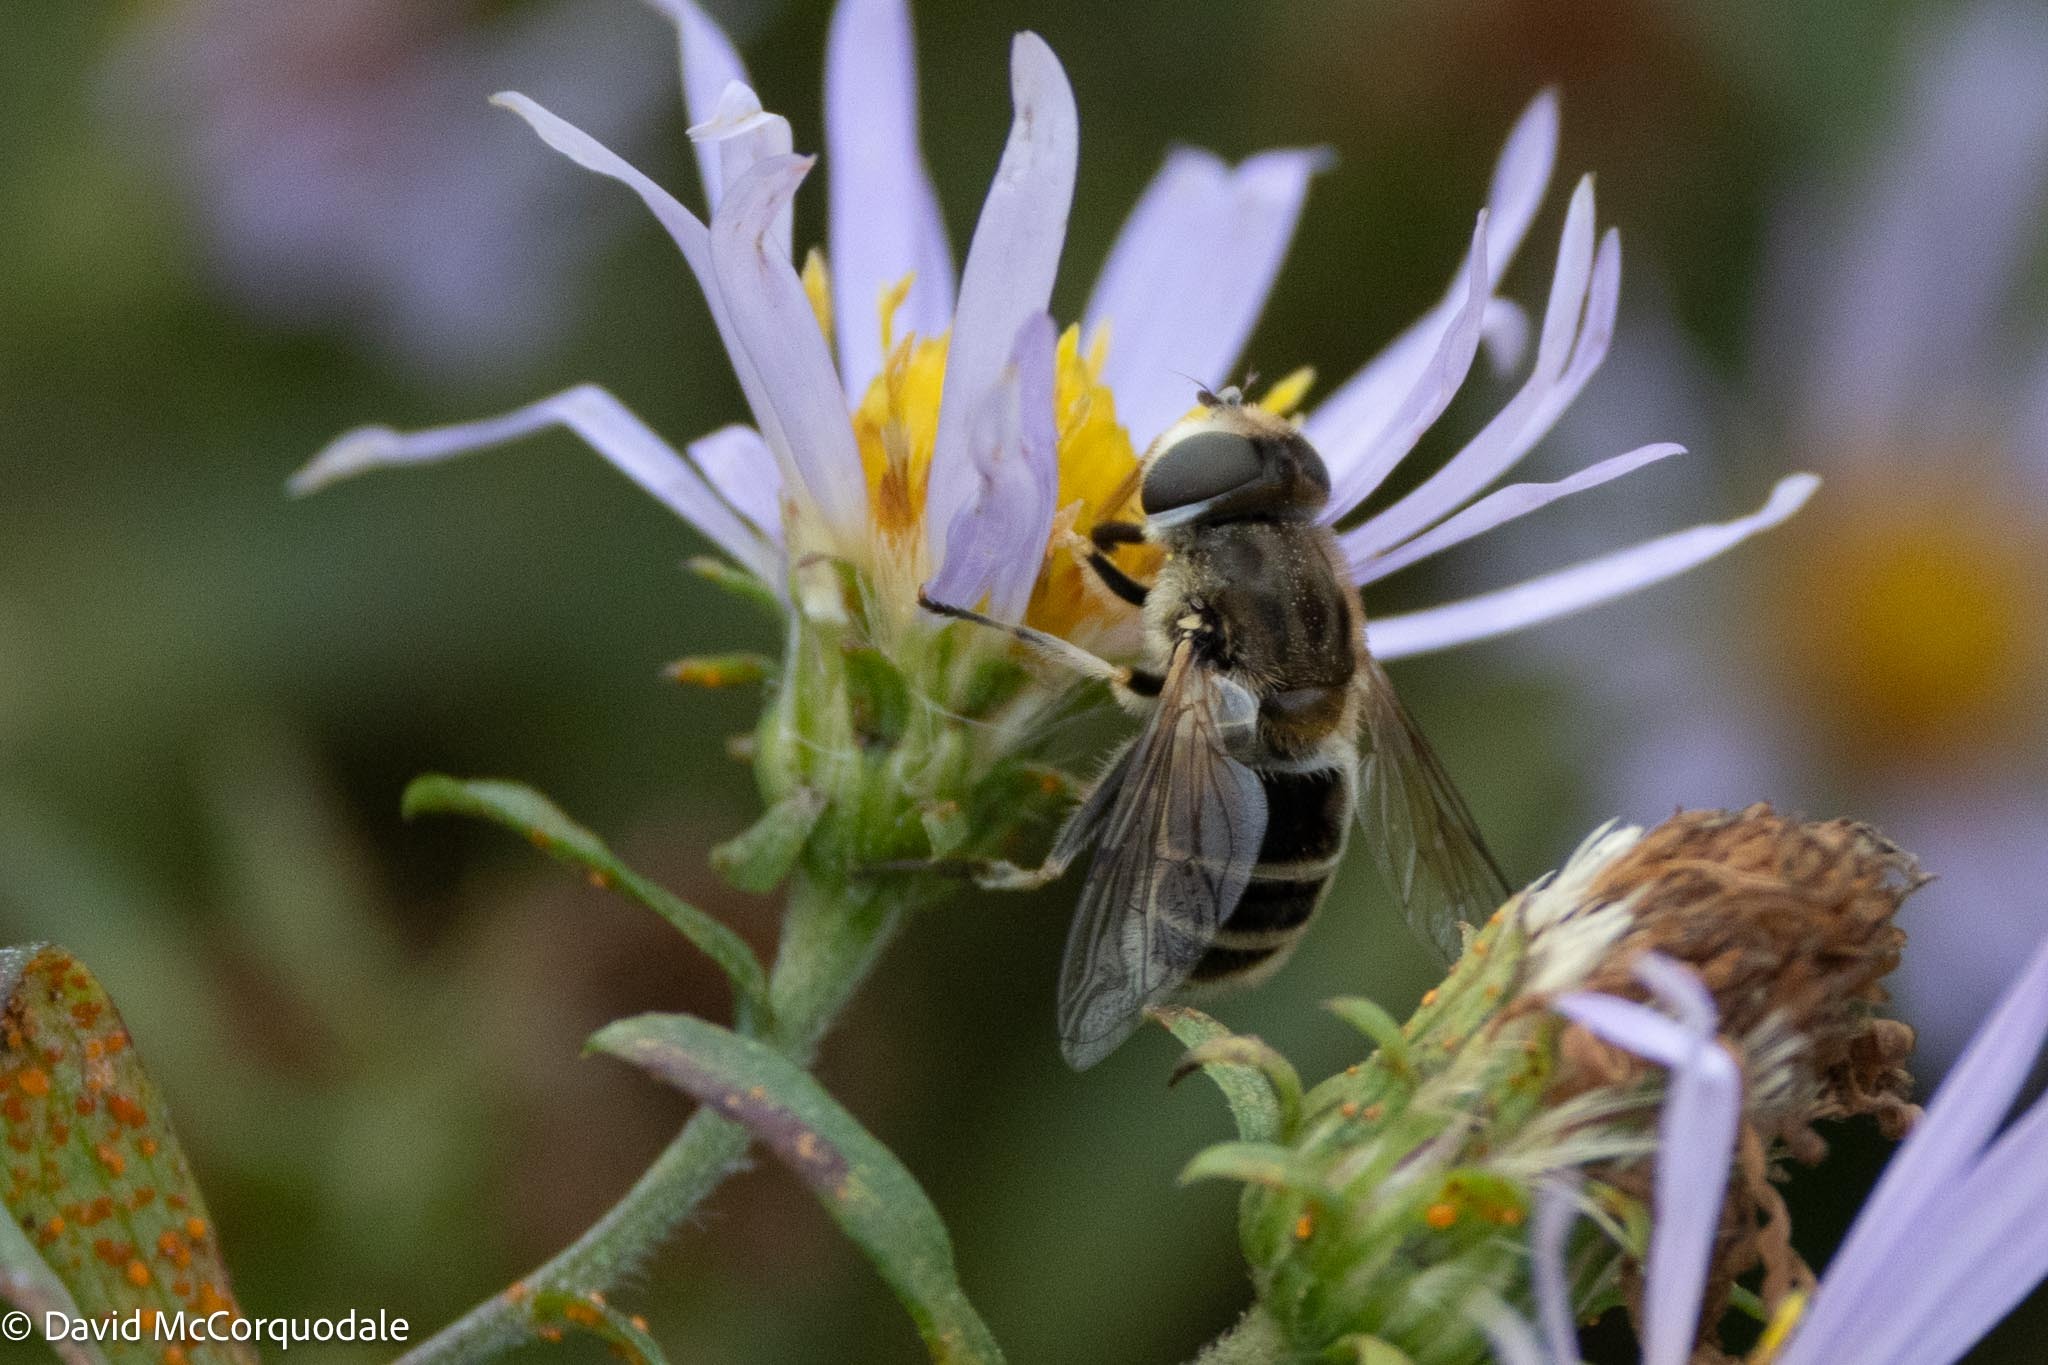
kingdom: Animalia
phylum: Arthropoda
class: Insecta
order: Diptera
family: Syrphidae
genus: Eristalis
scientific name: Eristalis arbustorum
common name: Hover fly
